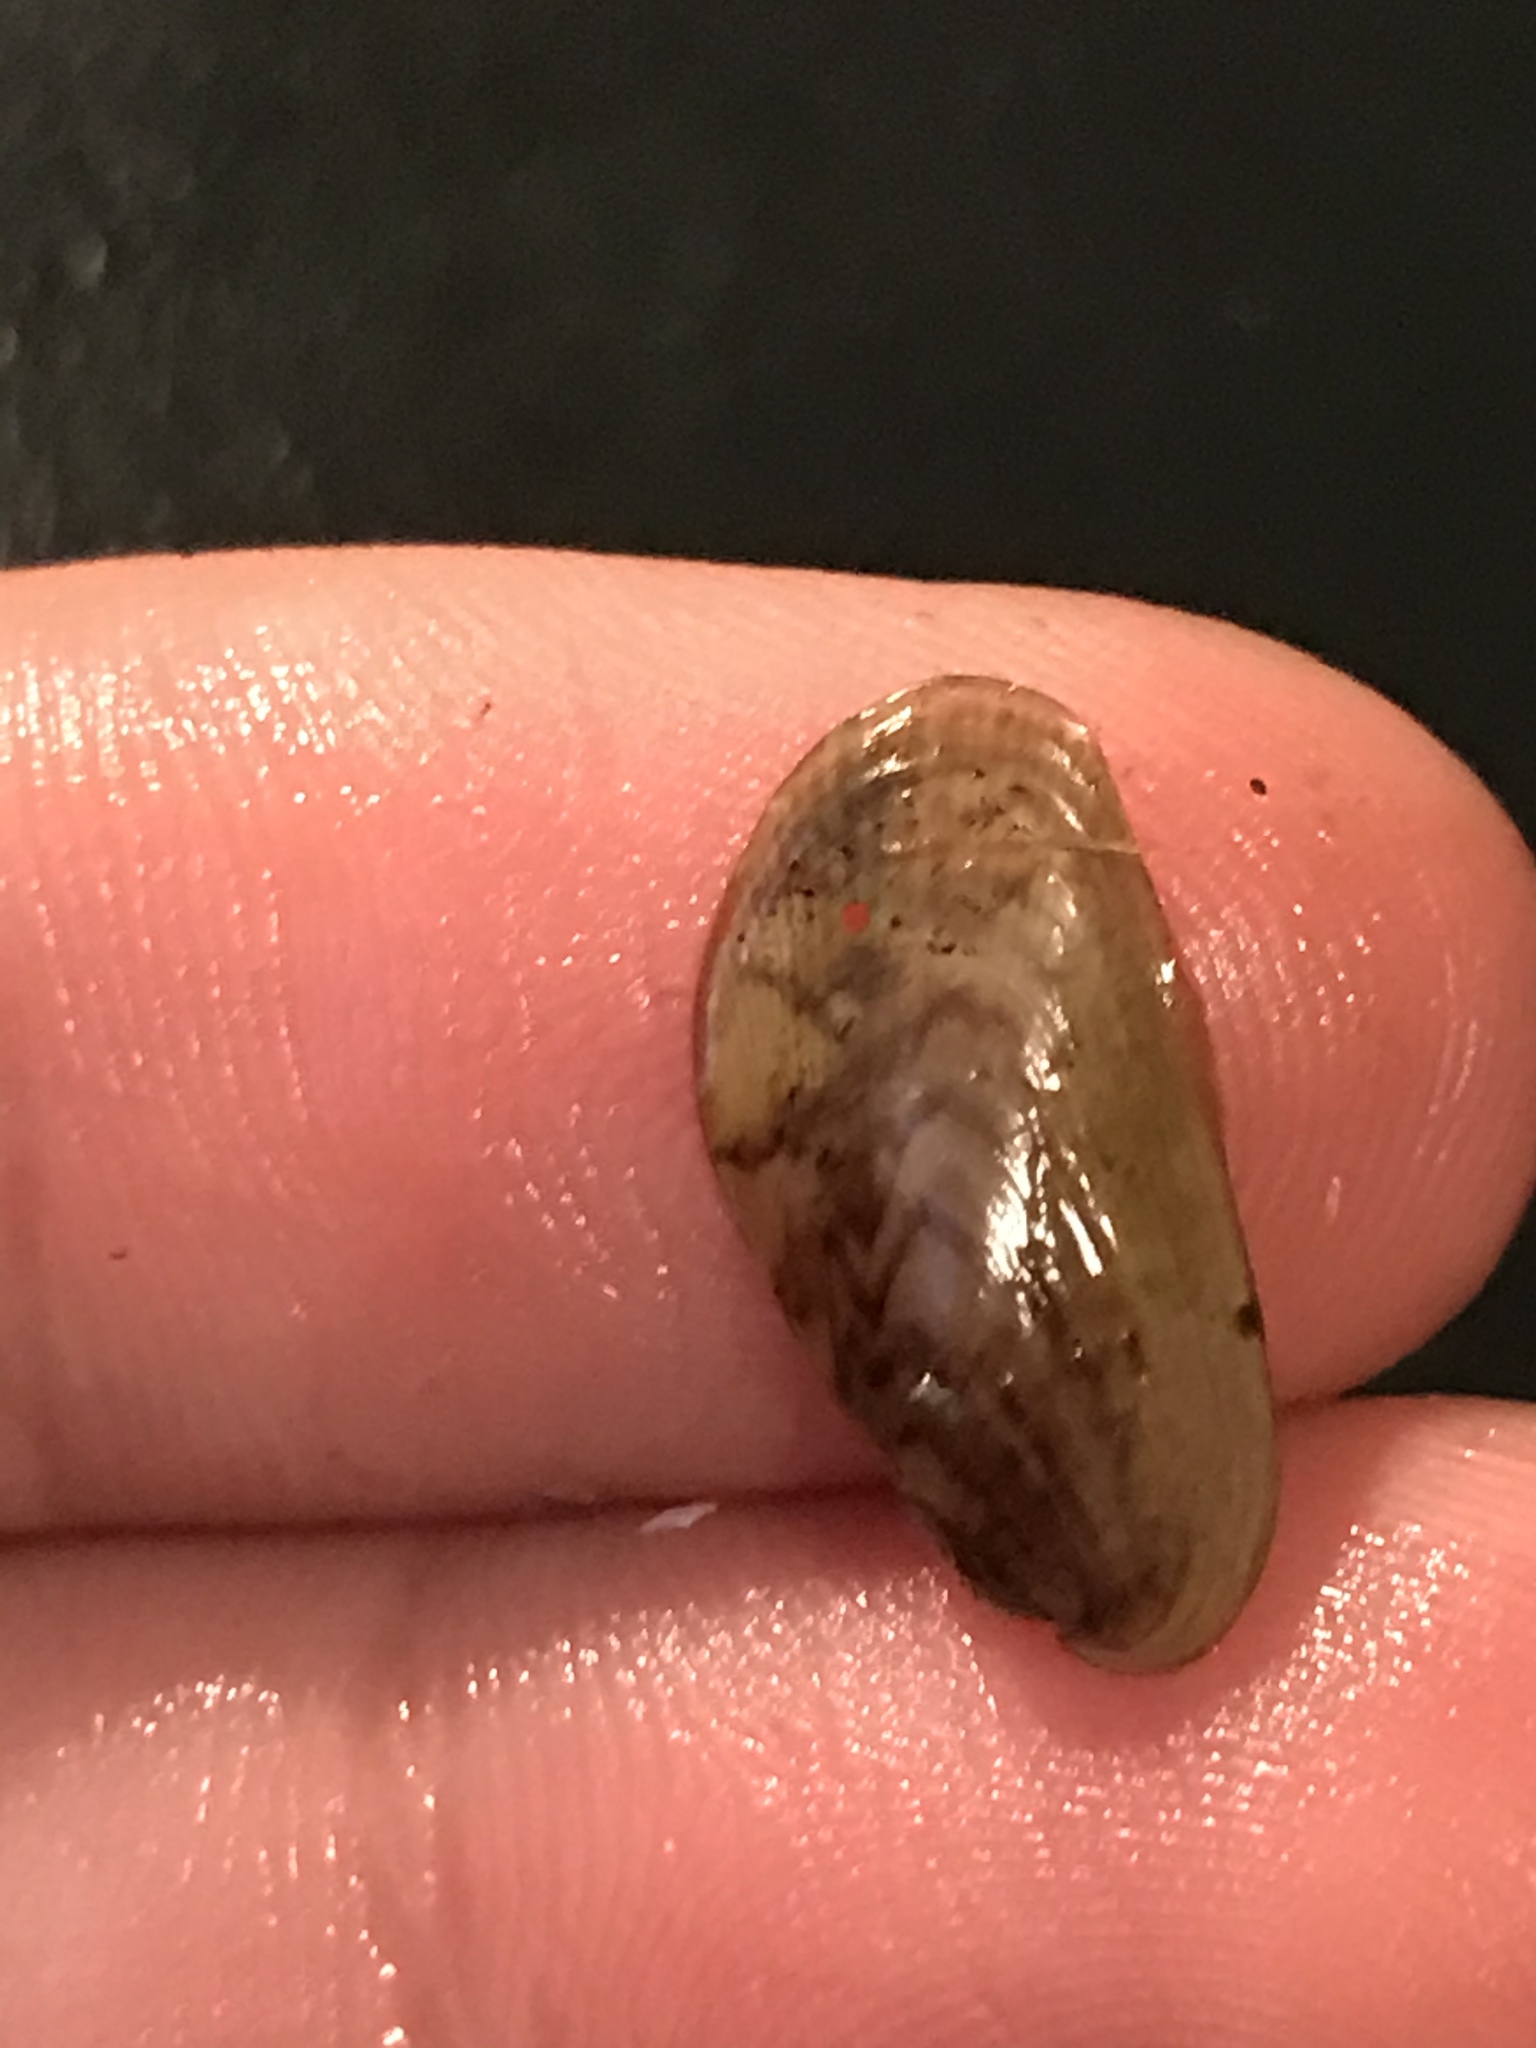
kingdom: Animalia
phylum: Mollusca
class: Bivalvia
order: Mytilida
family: Mytilidae
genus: Arcuatula
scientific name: Arcuatula senhousia
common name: Asian mussel
